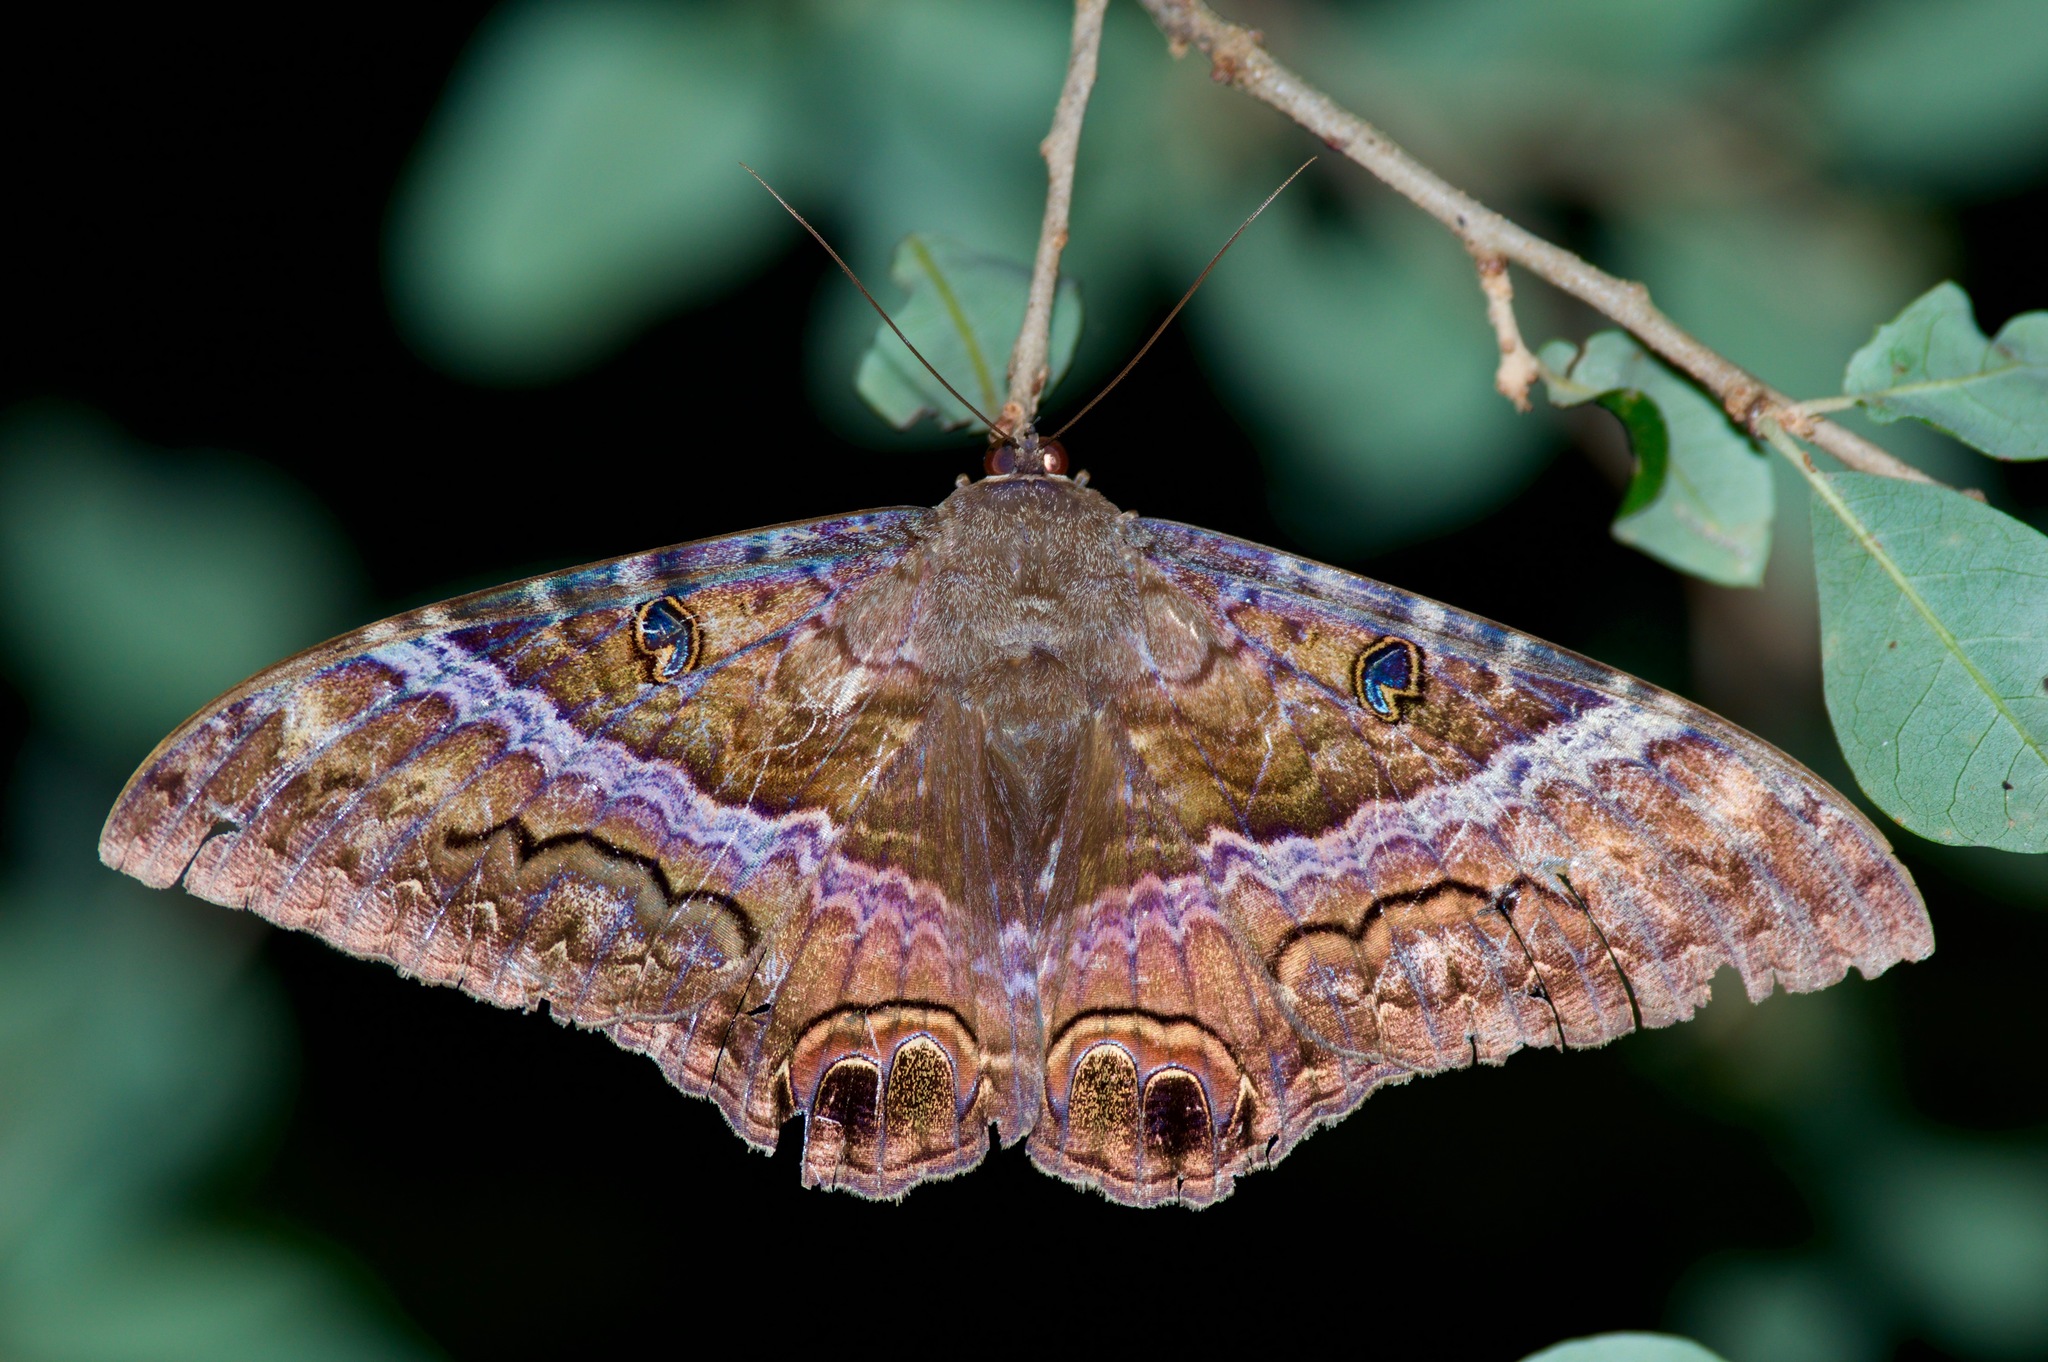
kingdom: Animalia
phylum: Arthropoda
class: Insecta
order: Lepidoptera
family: Erebidae
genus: Ascalapha
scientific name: Ascalapha odorata
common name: Black witch
